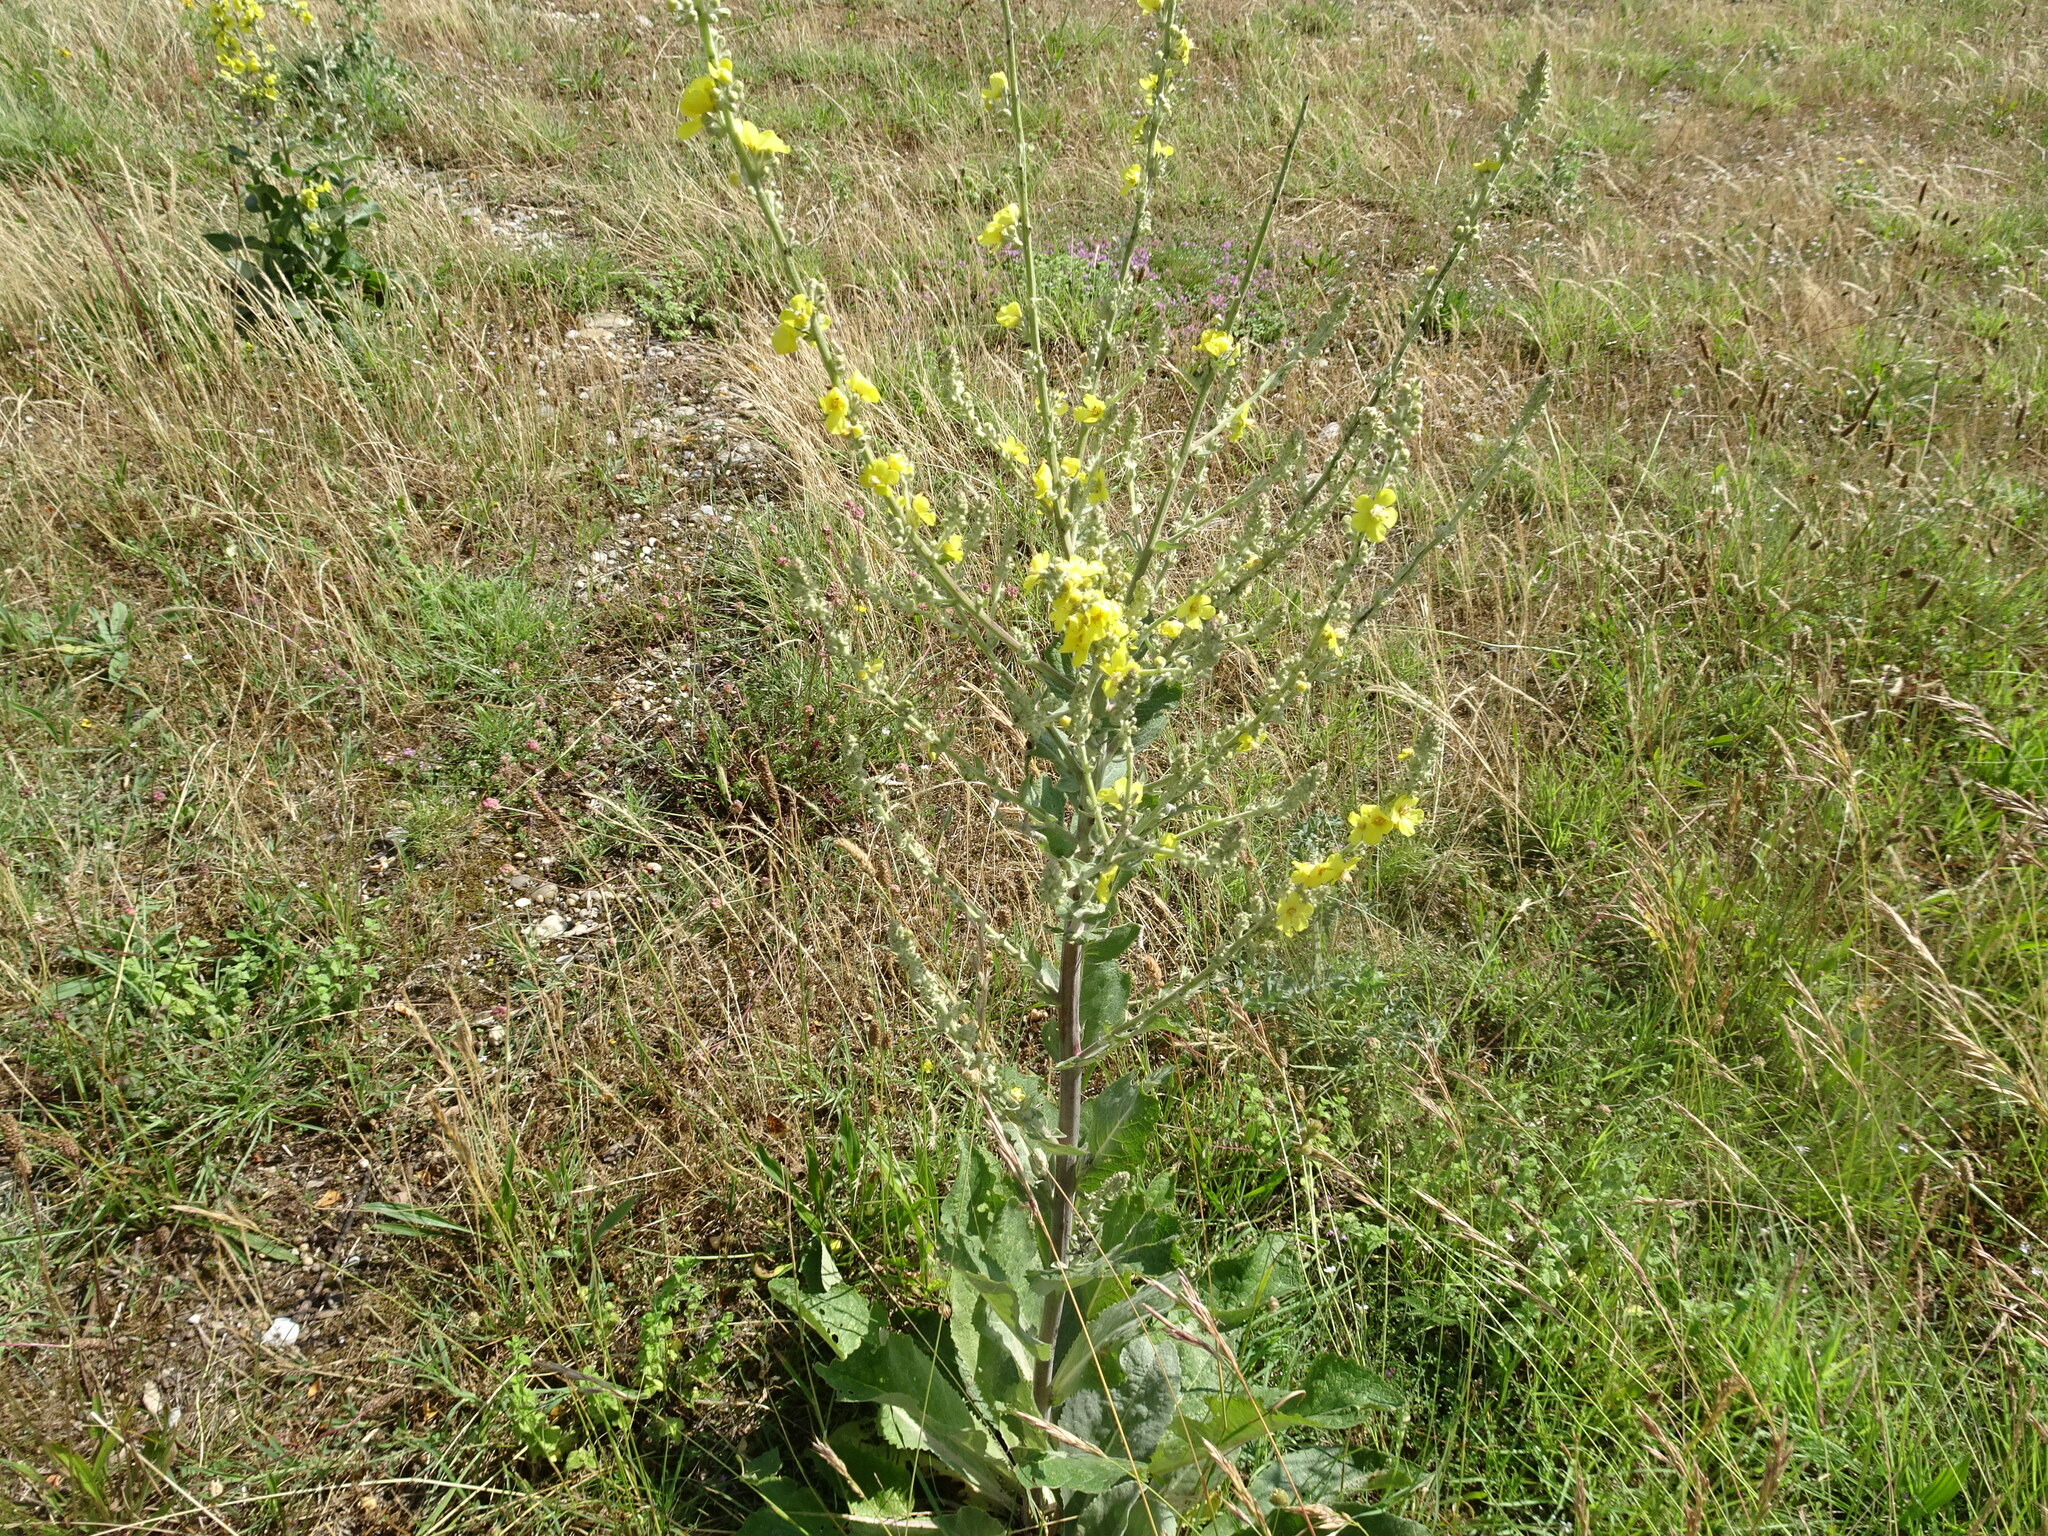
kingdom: Plantae
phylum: Tracheophyta
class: Magnoliopsida
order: Lamiales
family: Scrophulariaceae
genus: Verbascum
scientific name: Verbascum pulverulentum
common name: Broad-leaf mullein
